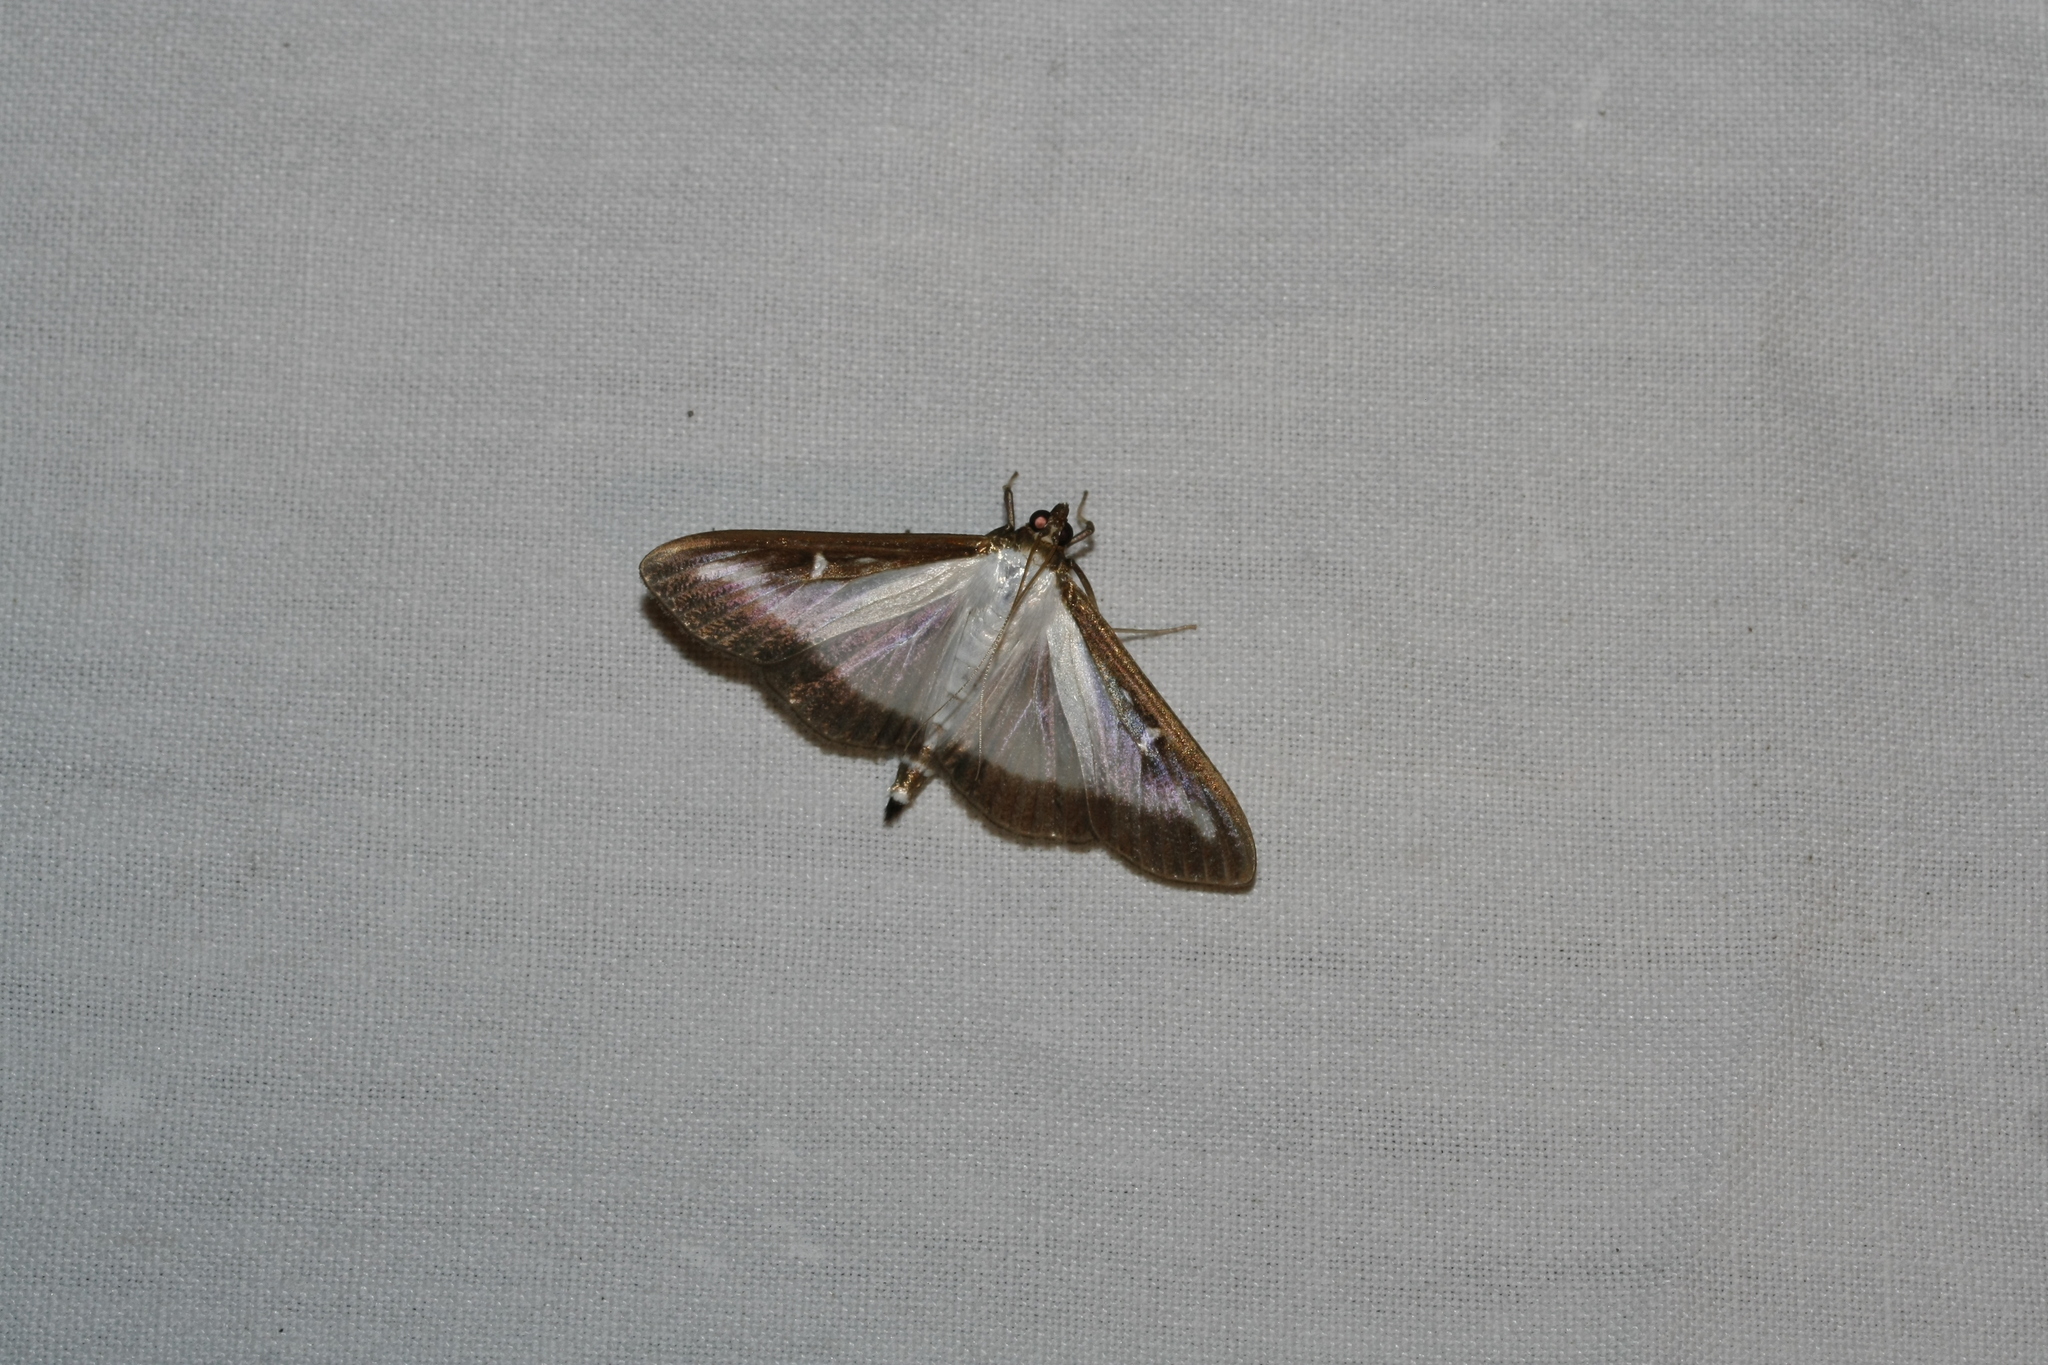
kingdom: Animalia
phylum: Arthropoda
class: Insecta
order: Lepidoptera
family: Crambidae
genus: Cydalima
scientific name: Cydalima perspectalis
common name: Box tree moth
